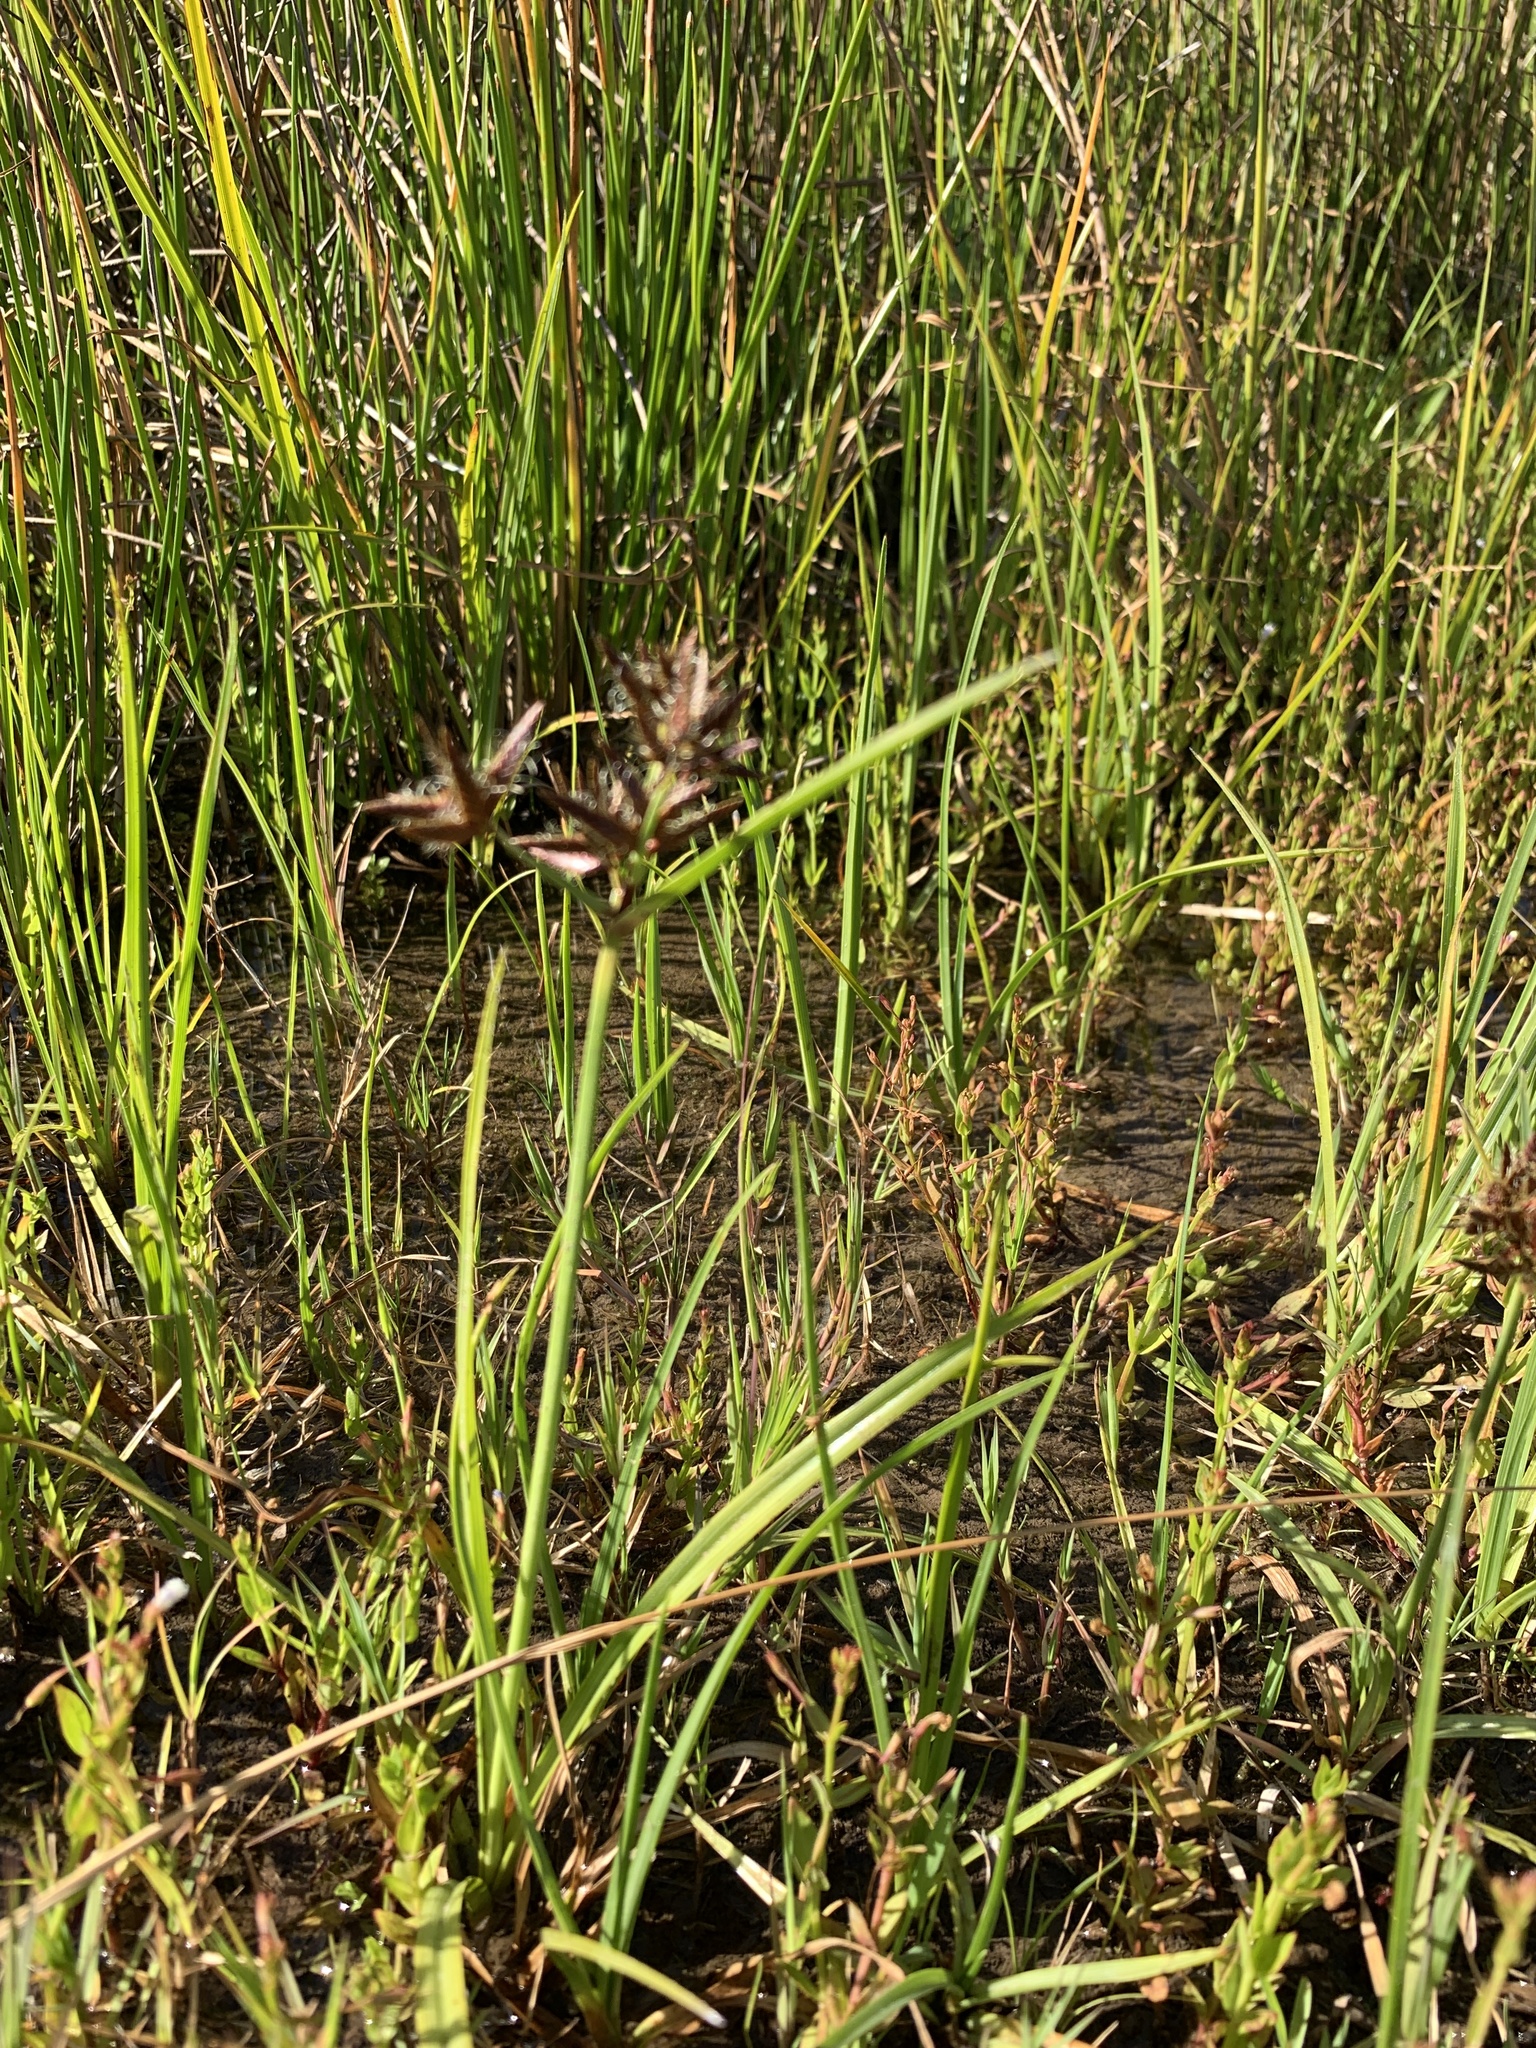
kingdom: Plantae
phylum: Tracheophyta
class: Liliopsida
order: Poales
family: Cyperaceae
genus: Cyperus
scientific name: Cyperus nitidus
